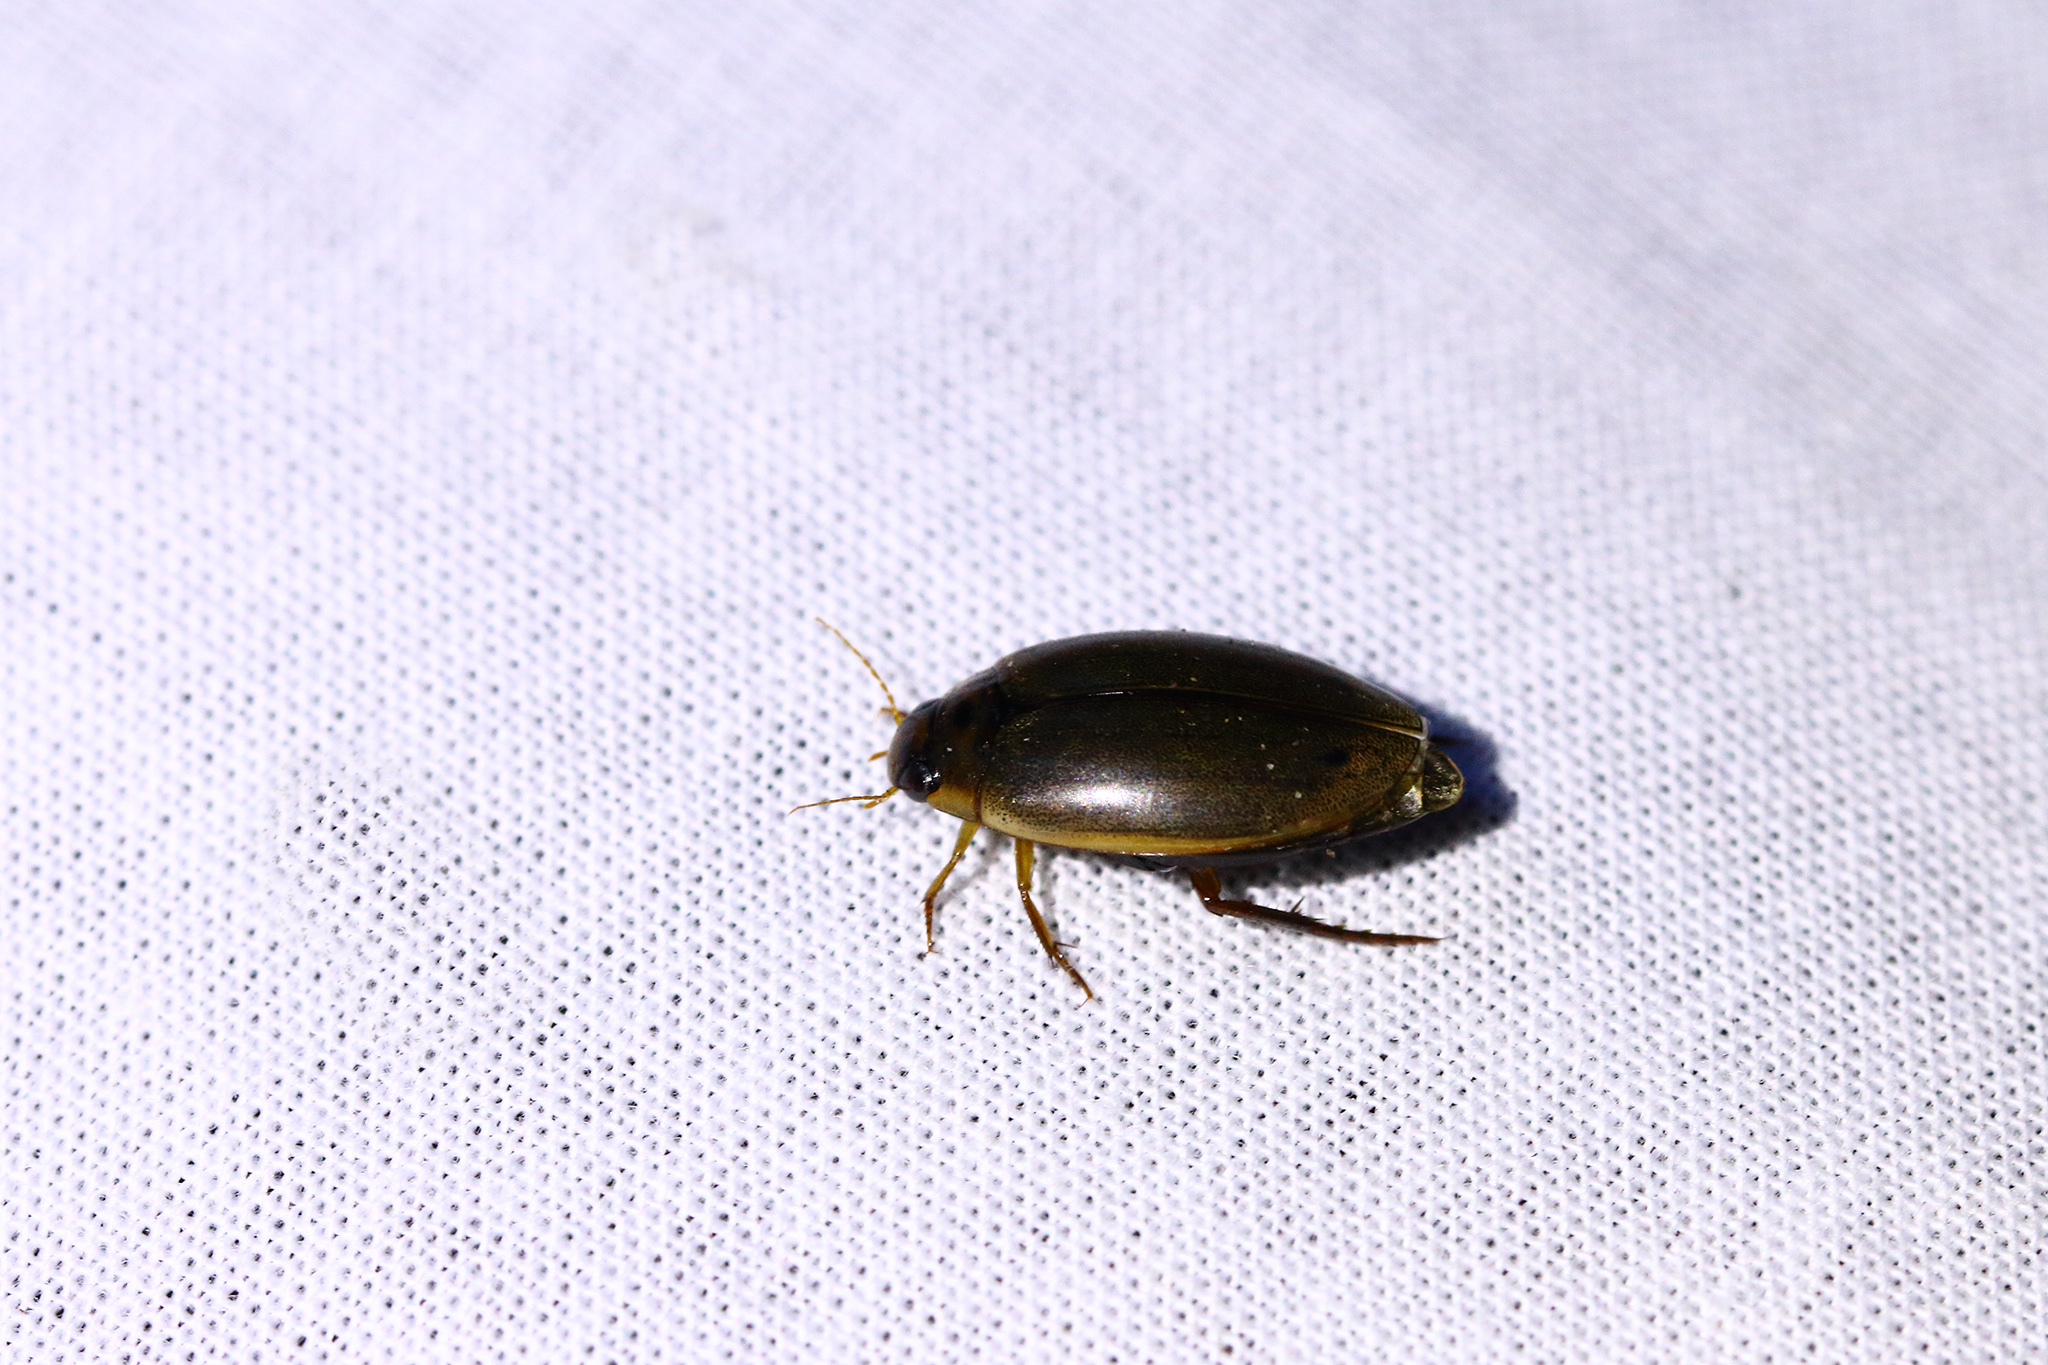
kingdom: Animalia
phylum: Arthropoda
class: Insecta
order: Coleoptera
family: Dytiscidae
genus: Rhantus
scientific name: Rhantus suturalis
